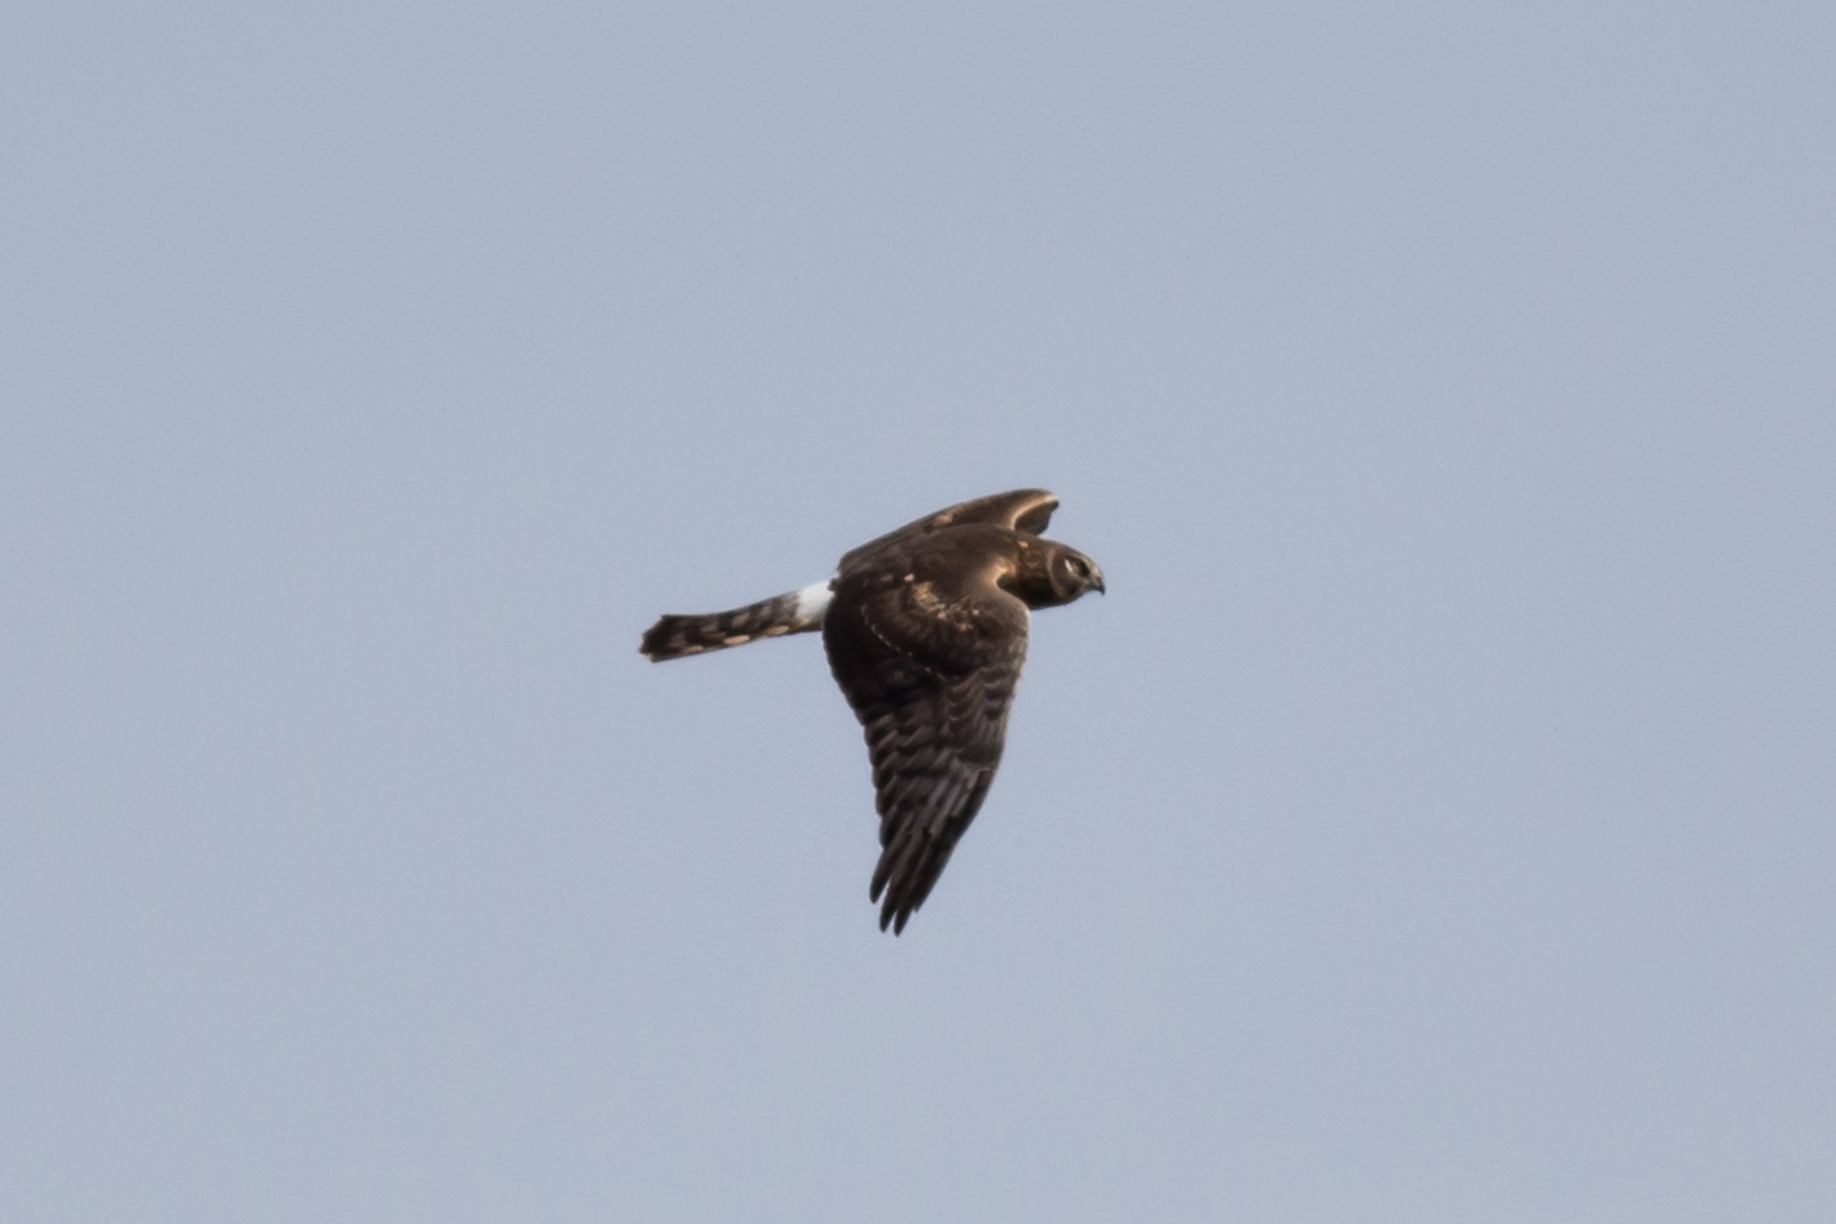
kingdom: Animalia
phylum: Chordata
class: Aves
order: Accipitriformes
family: Accipitridae
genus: Circus
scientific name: Circus cyaneus
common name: Hen harrier
